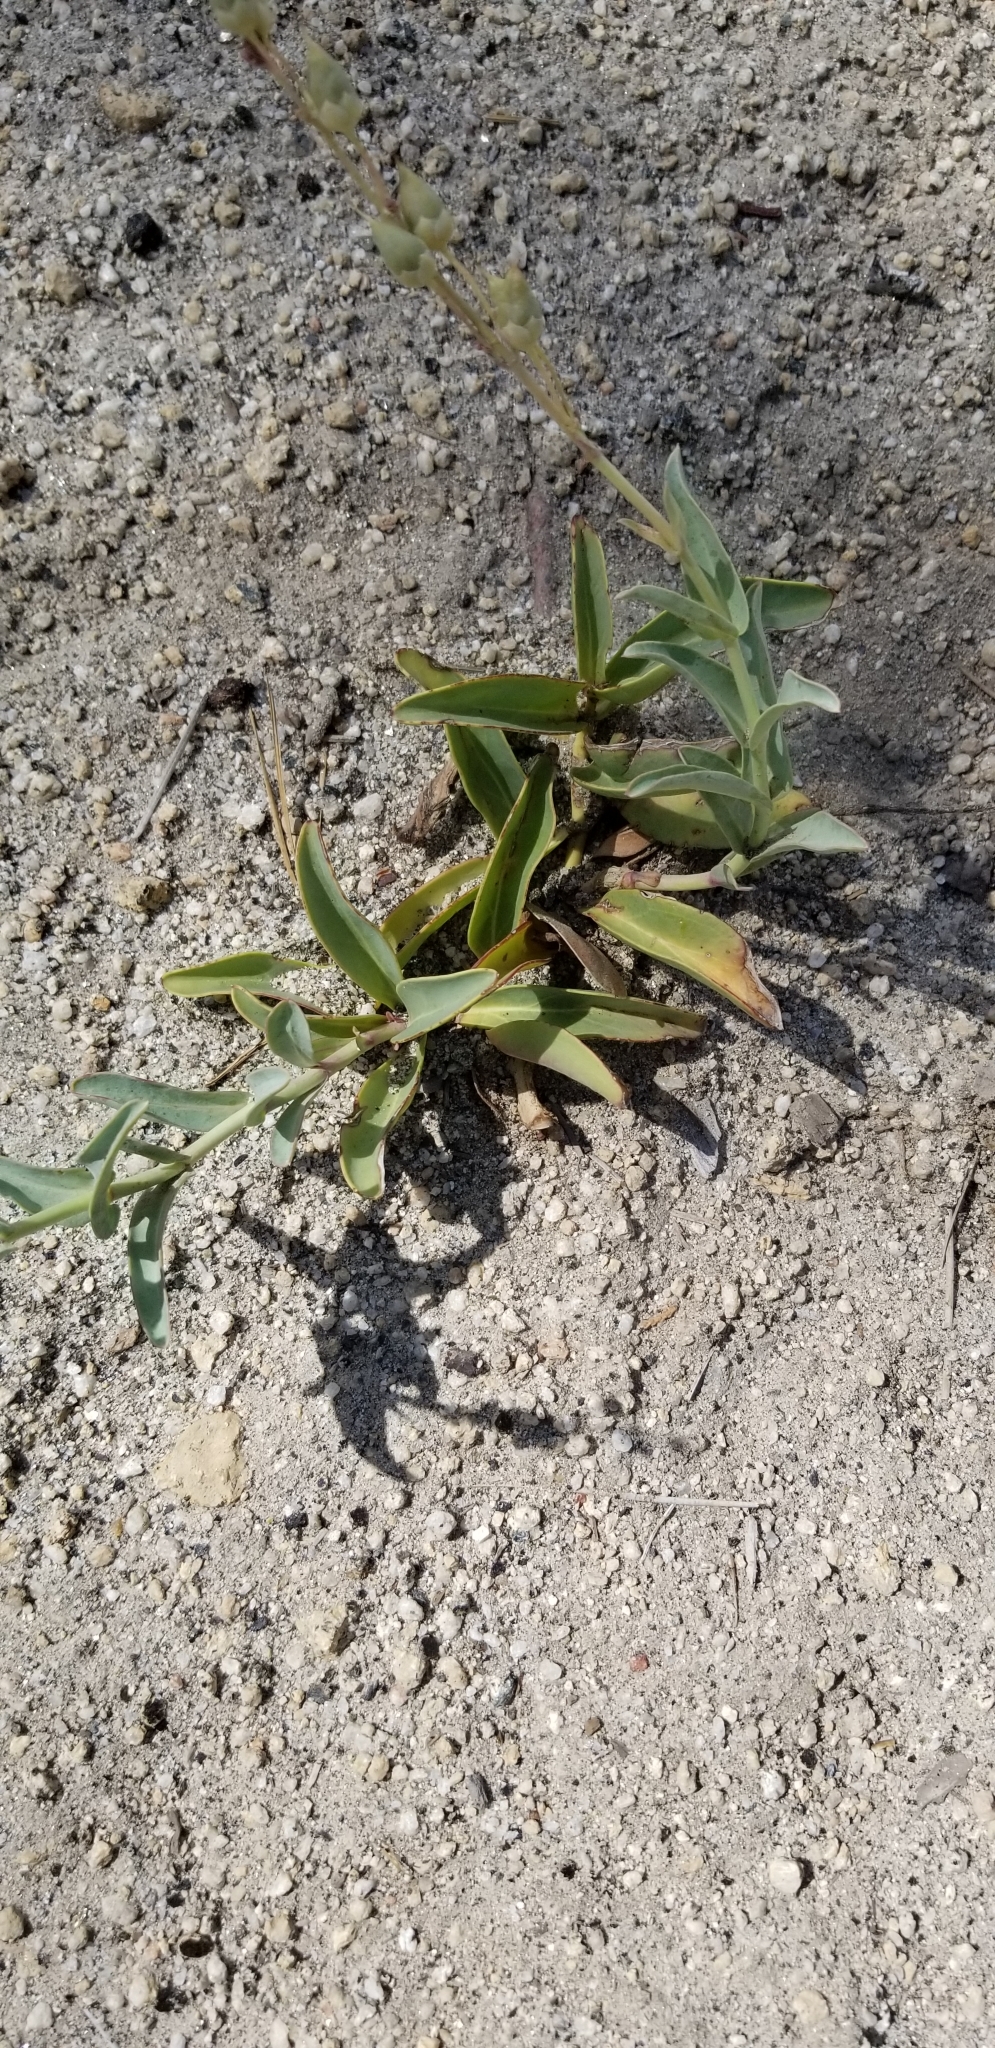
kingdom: Plantae
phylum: Tracheophyta
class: Magnoliopsida
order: Lamiales
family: Plantaginaceae
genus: Penstemon
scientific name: Penstemon centranthifolius
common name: Scarlet bugler
